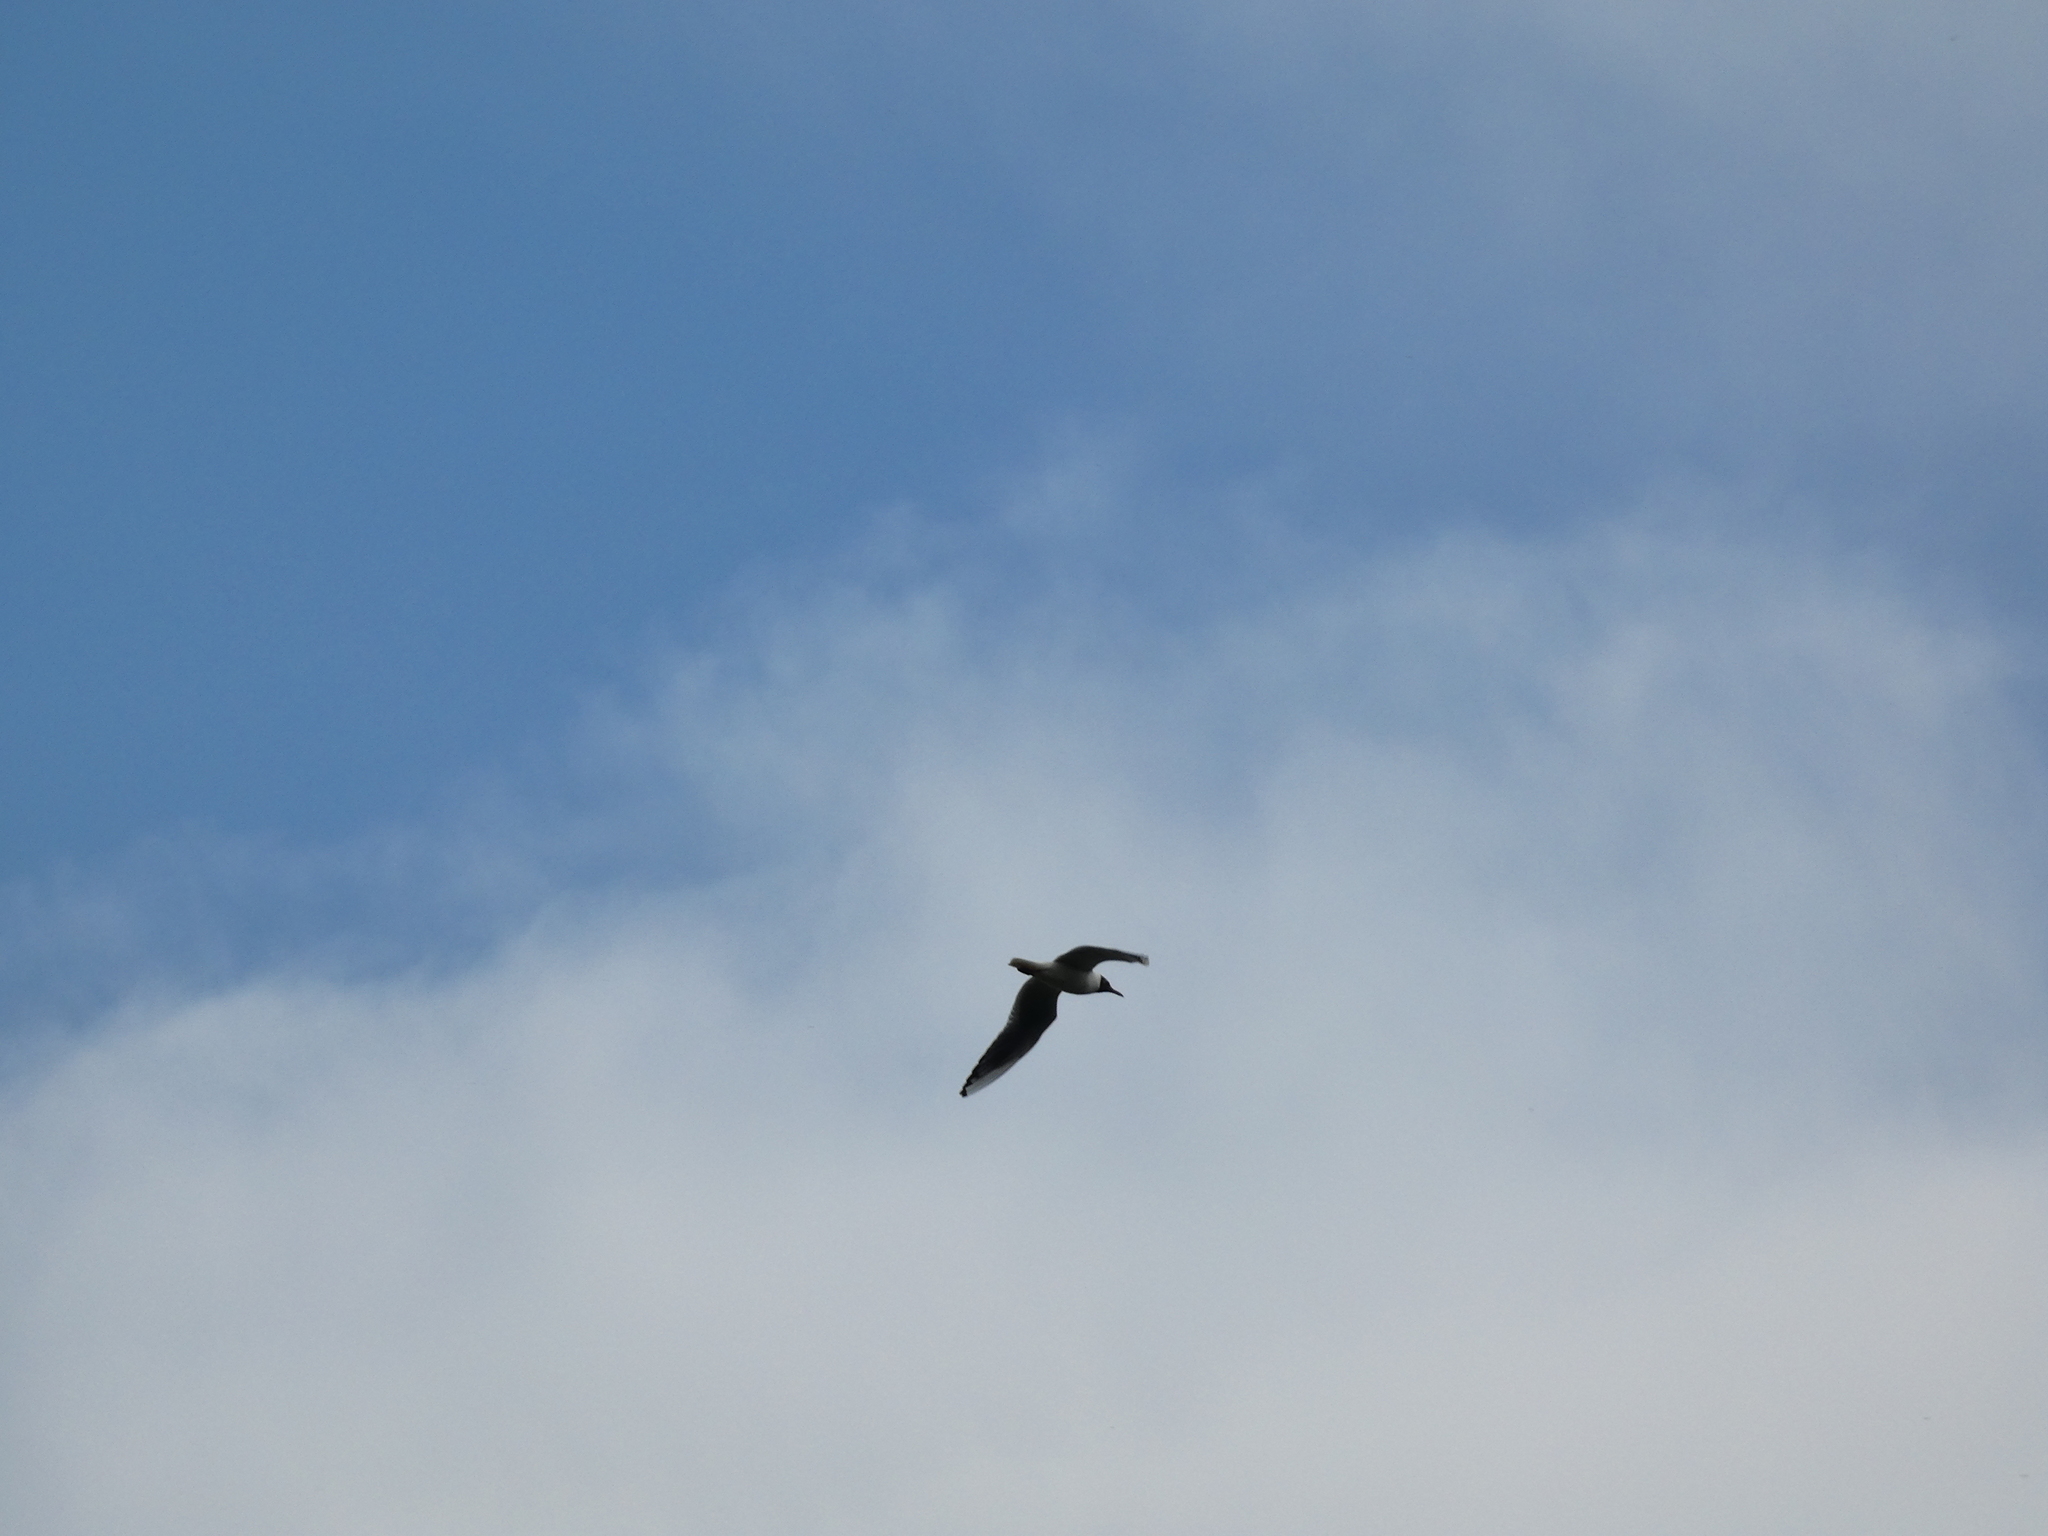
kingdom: Animalia
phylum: Chordata
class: Aves
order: Charadriiformes
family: Laridae
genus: Chroicocephalus
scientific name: Chroicocephalus ridibundus
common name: Black-headed gull
